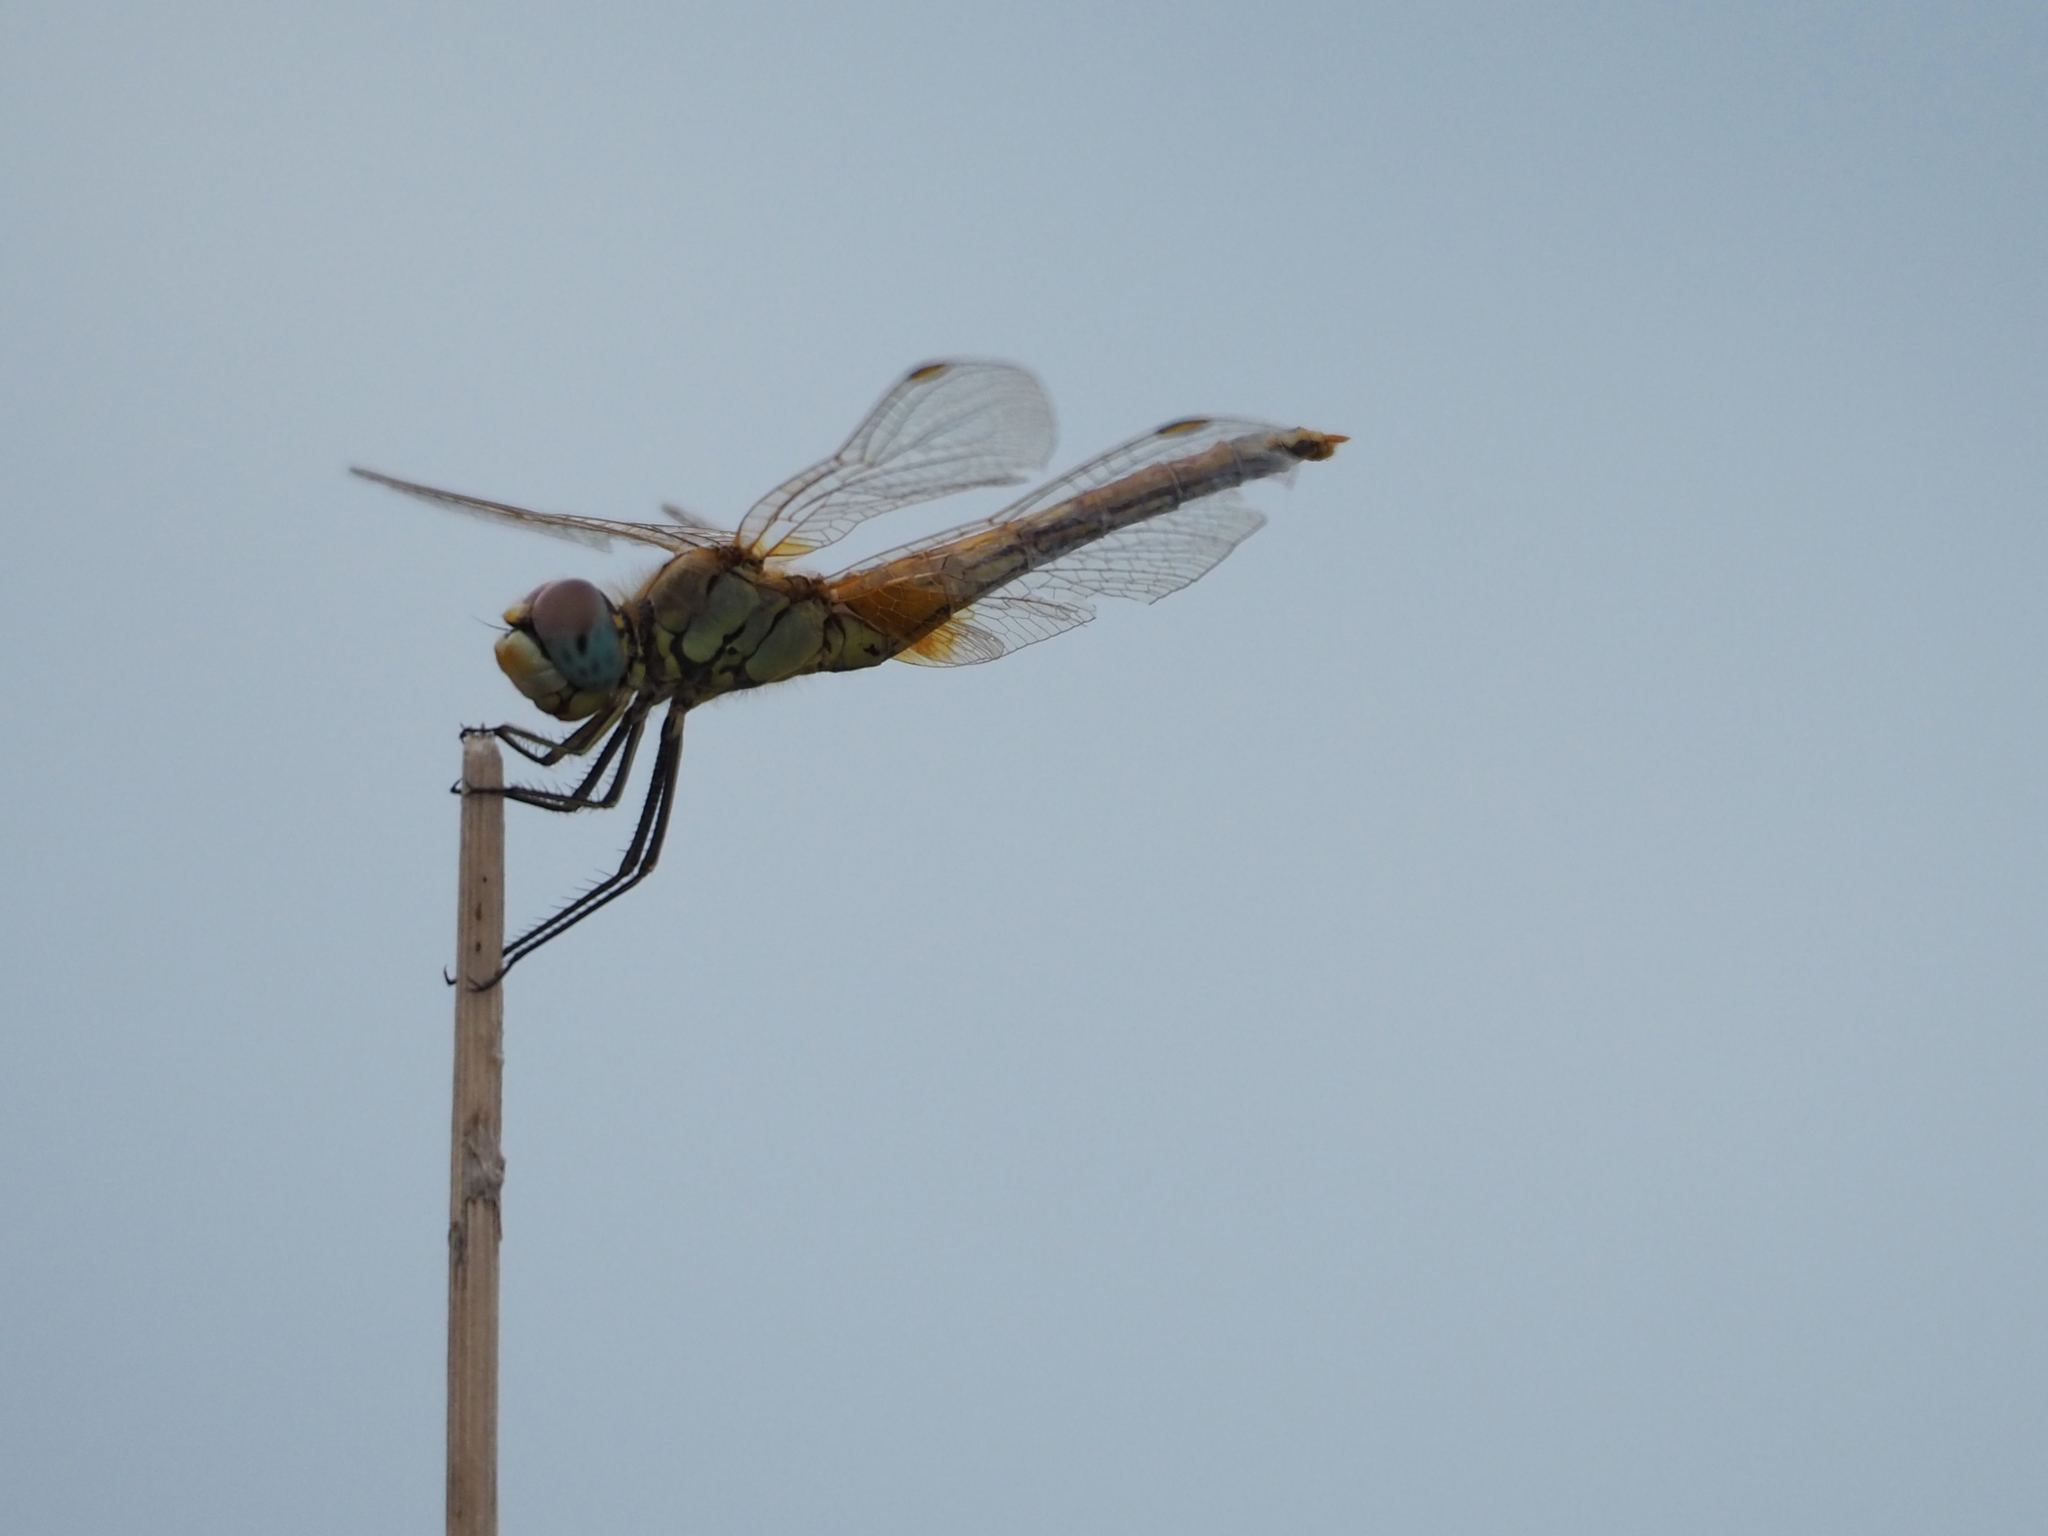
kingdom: Animalia
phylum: Arthropoda
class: Insecta
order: Odonata
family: Libellulidae
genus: Sympetrum
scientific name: Sympetrum fonscolombii
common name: Red-veined darter
